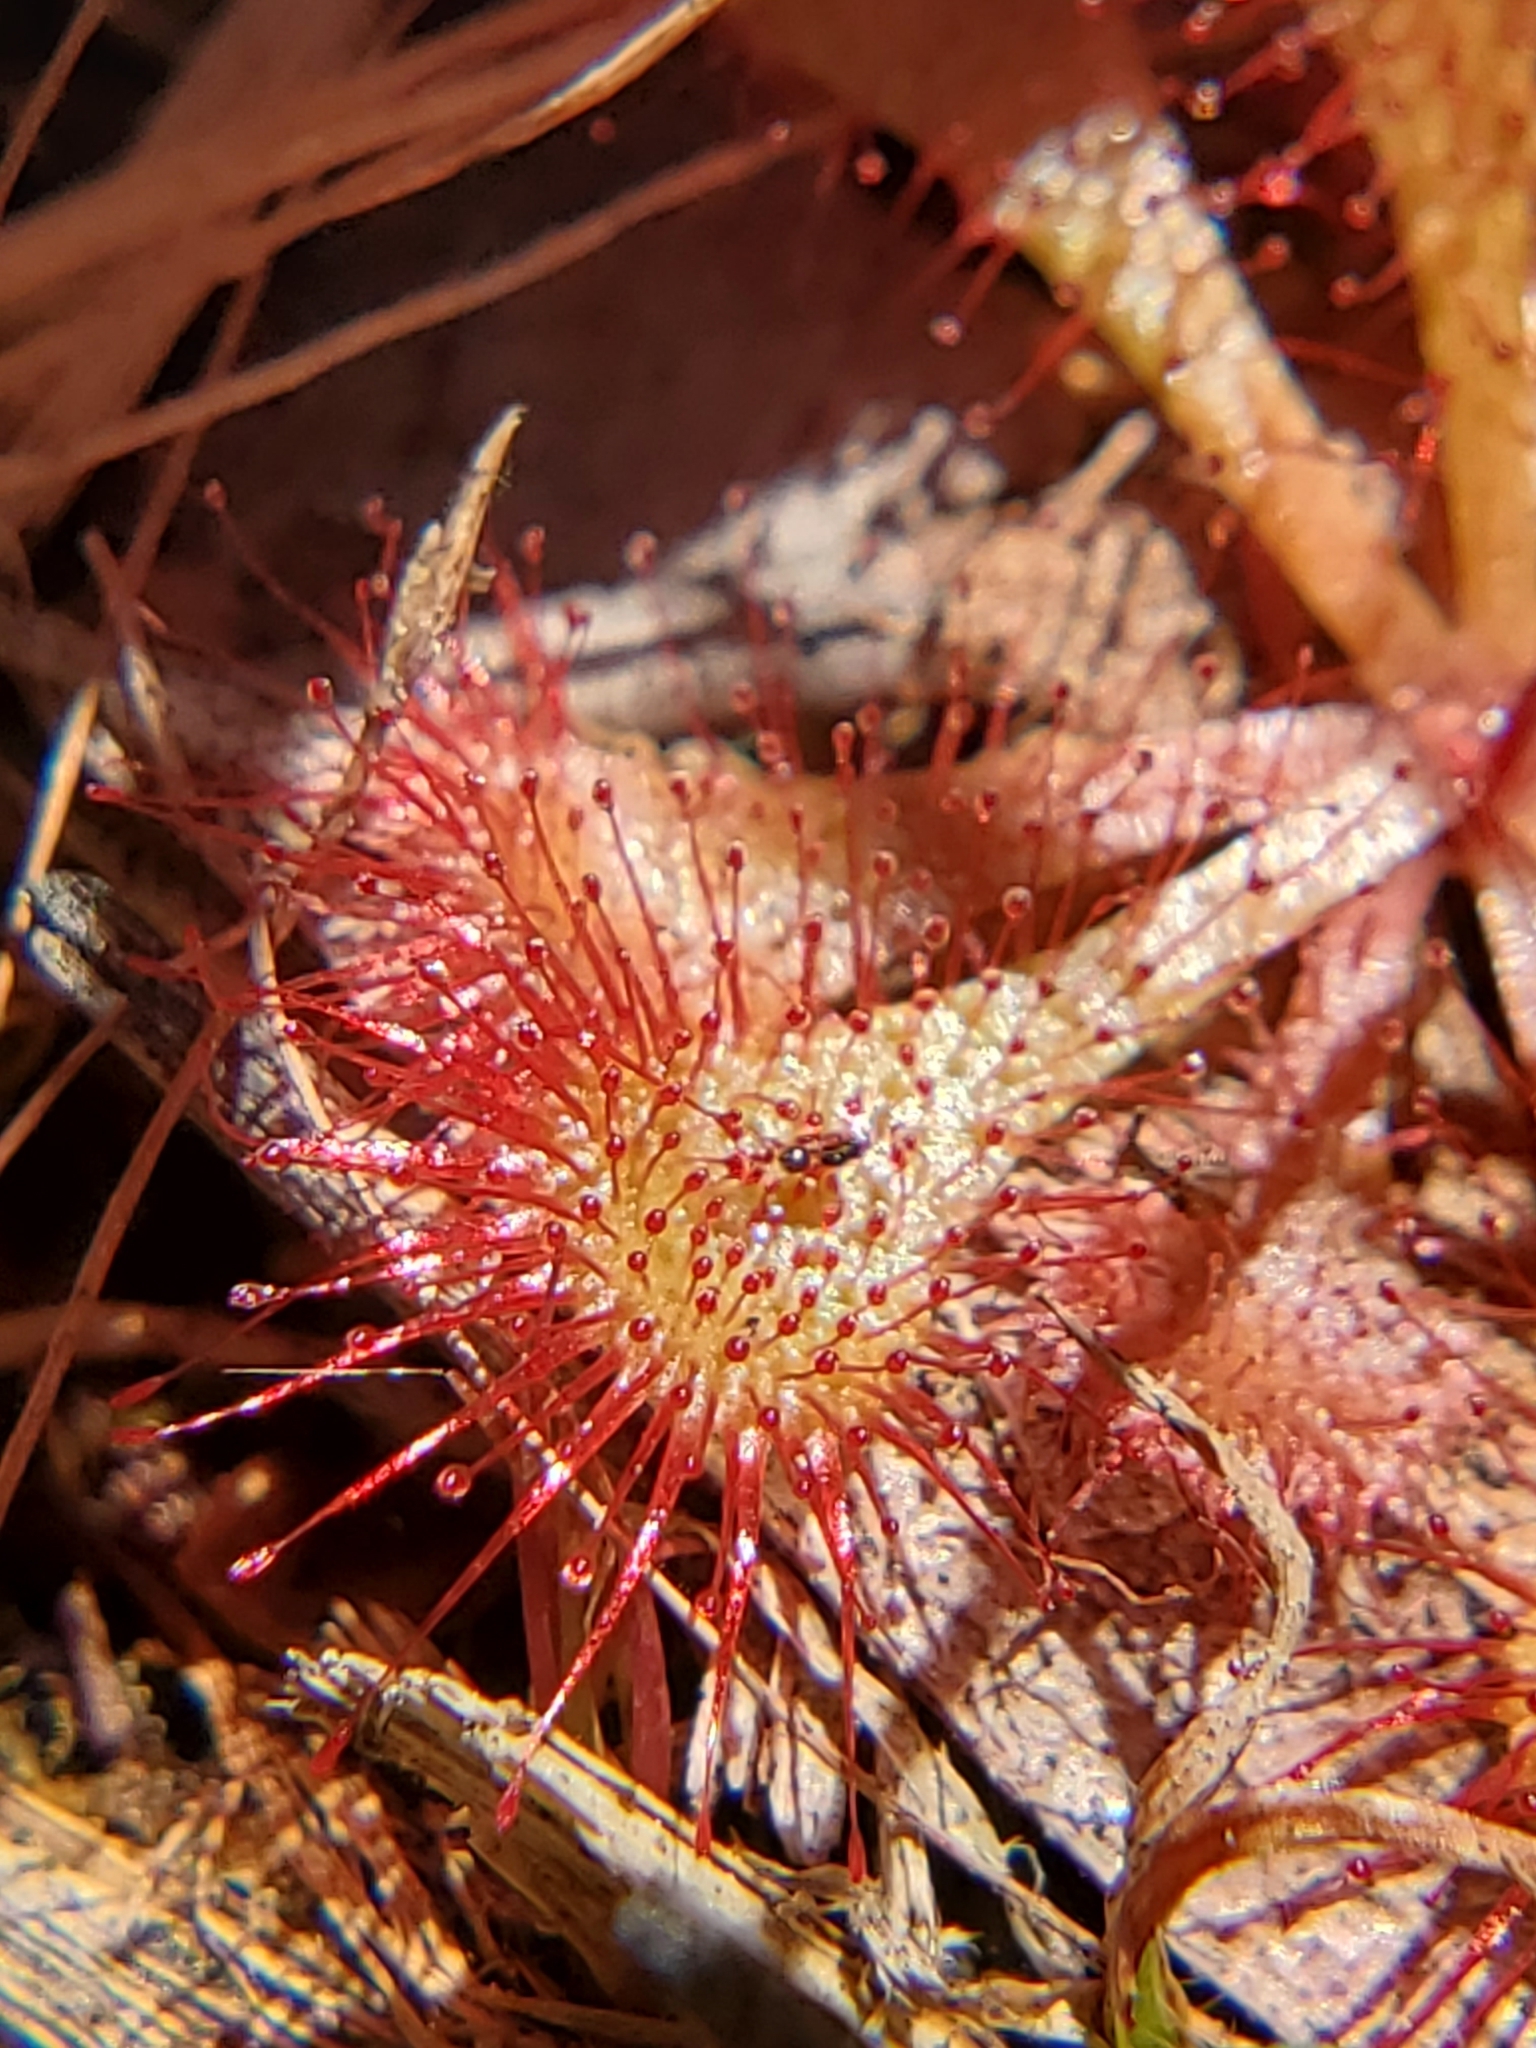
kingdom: Plantae
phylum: Tracheophyta
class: Magnoliopsida
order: Caryophyllales
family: Droseraceae
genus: Drosera
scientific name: Drosera brevifolia
